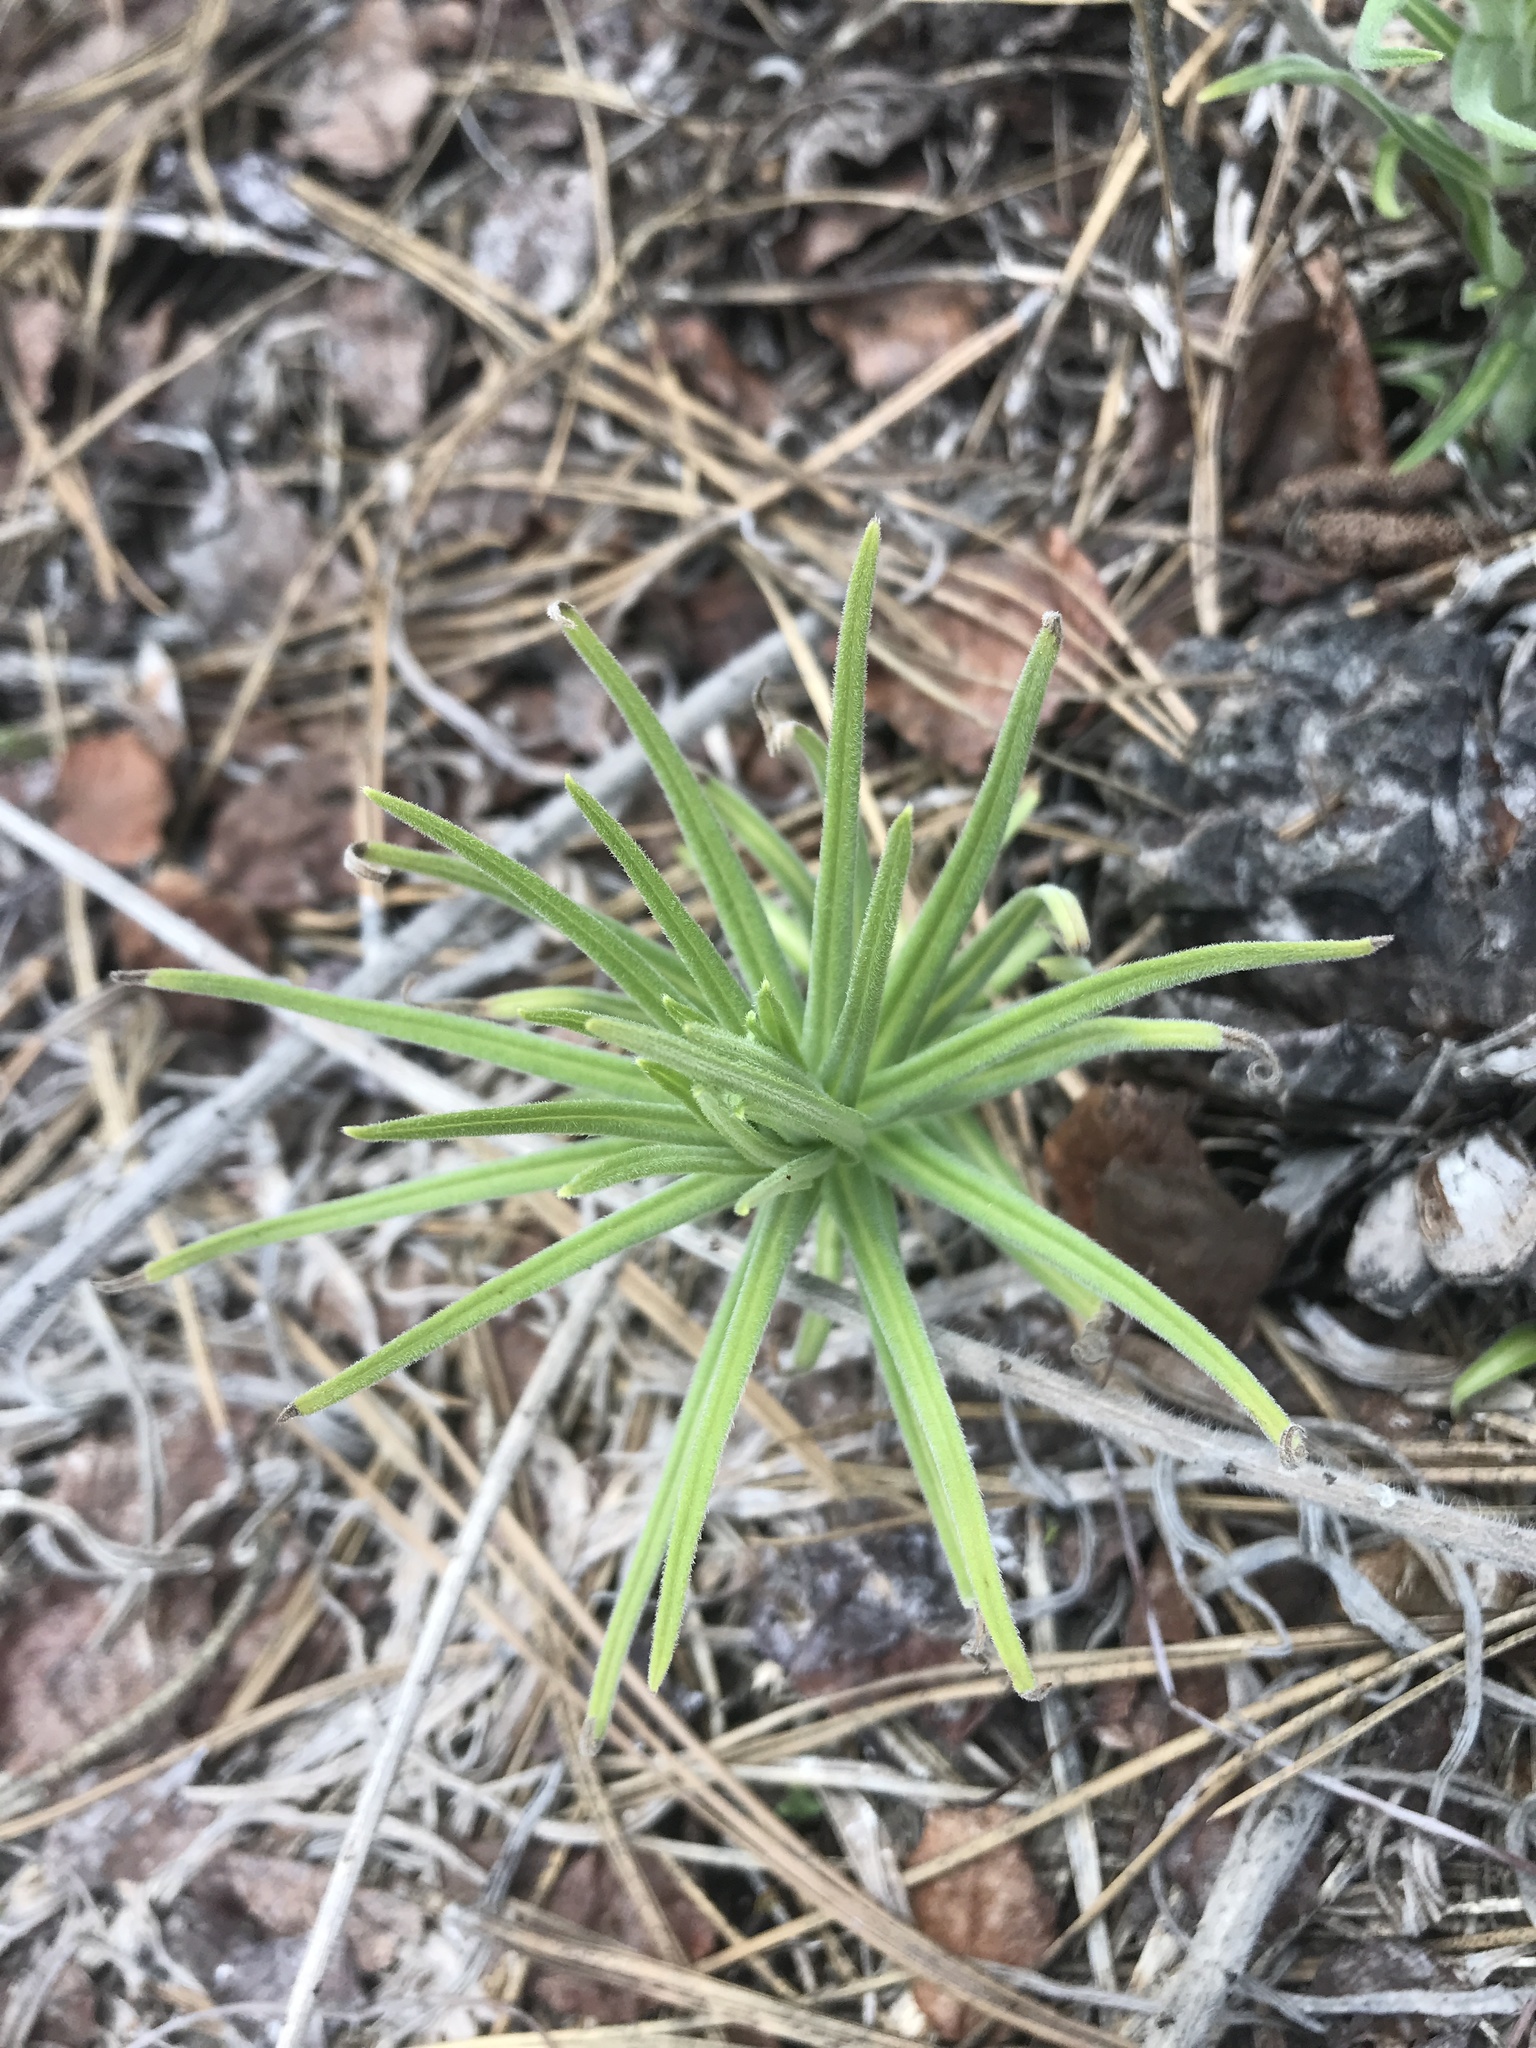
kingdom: Plantae
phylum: Tracheophyta
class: Magnoliopsida
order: Boraginales
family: Boraginaceae
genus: Lithospermum
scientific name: Lithospermum ruderale
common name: Western gromwell
